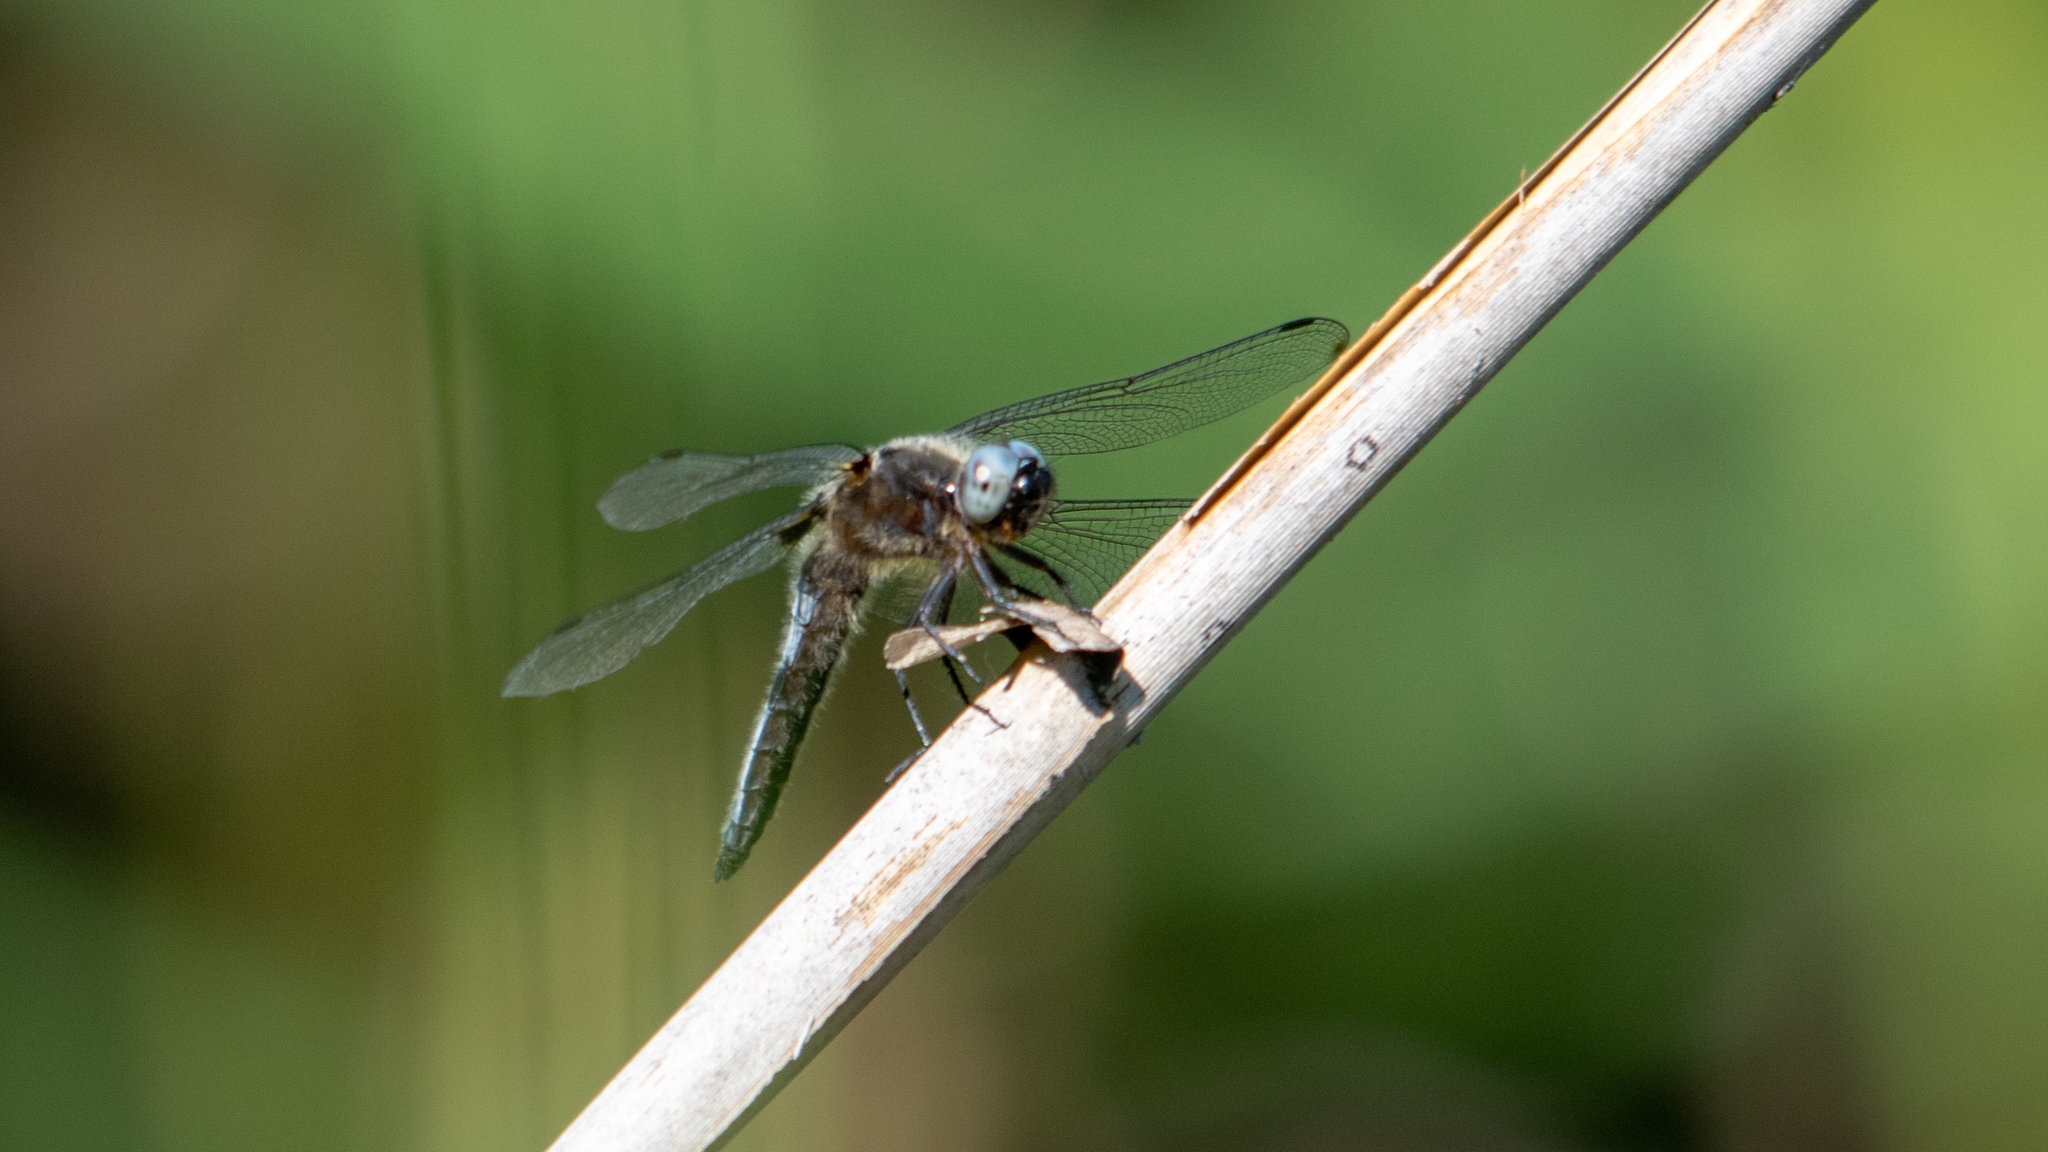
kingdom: Animalia
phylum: Arthropoda
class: Insecta
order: Odonata
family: Libellulidae
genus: Libellula
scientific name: Libellula fulva
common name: Blue chaser
